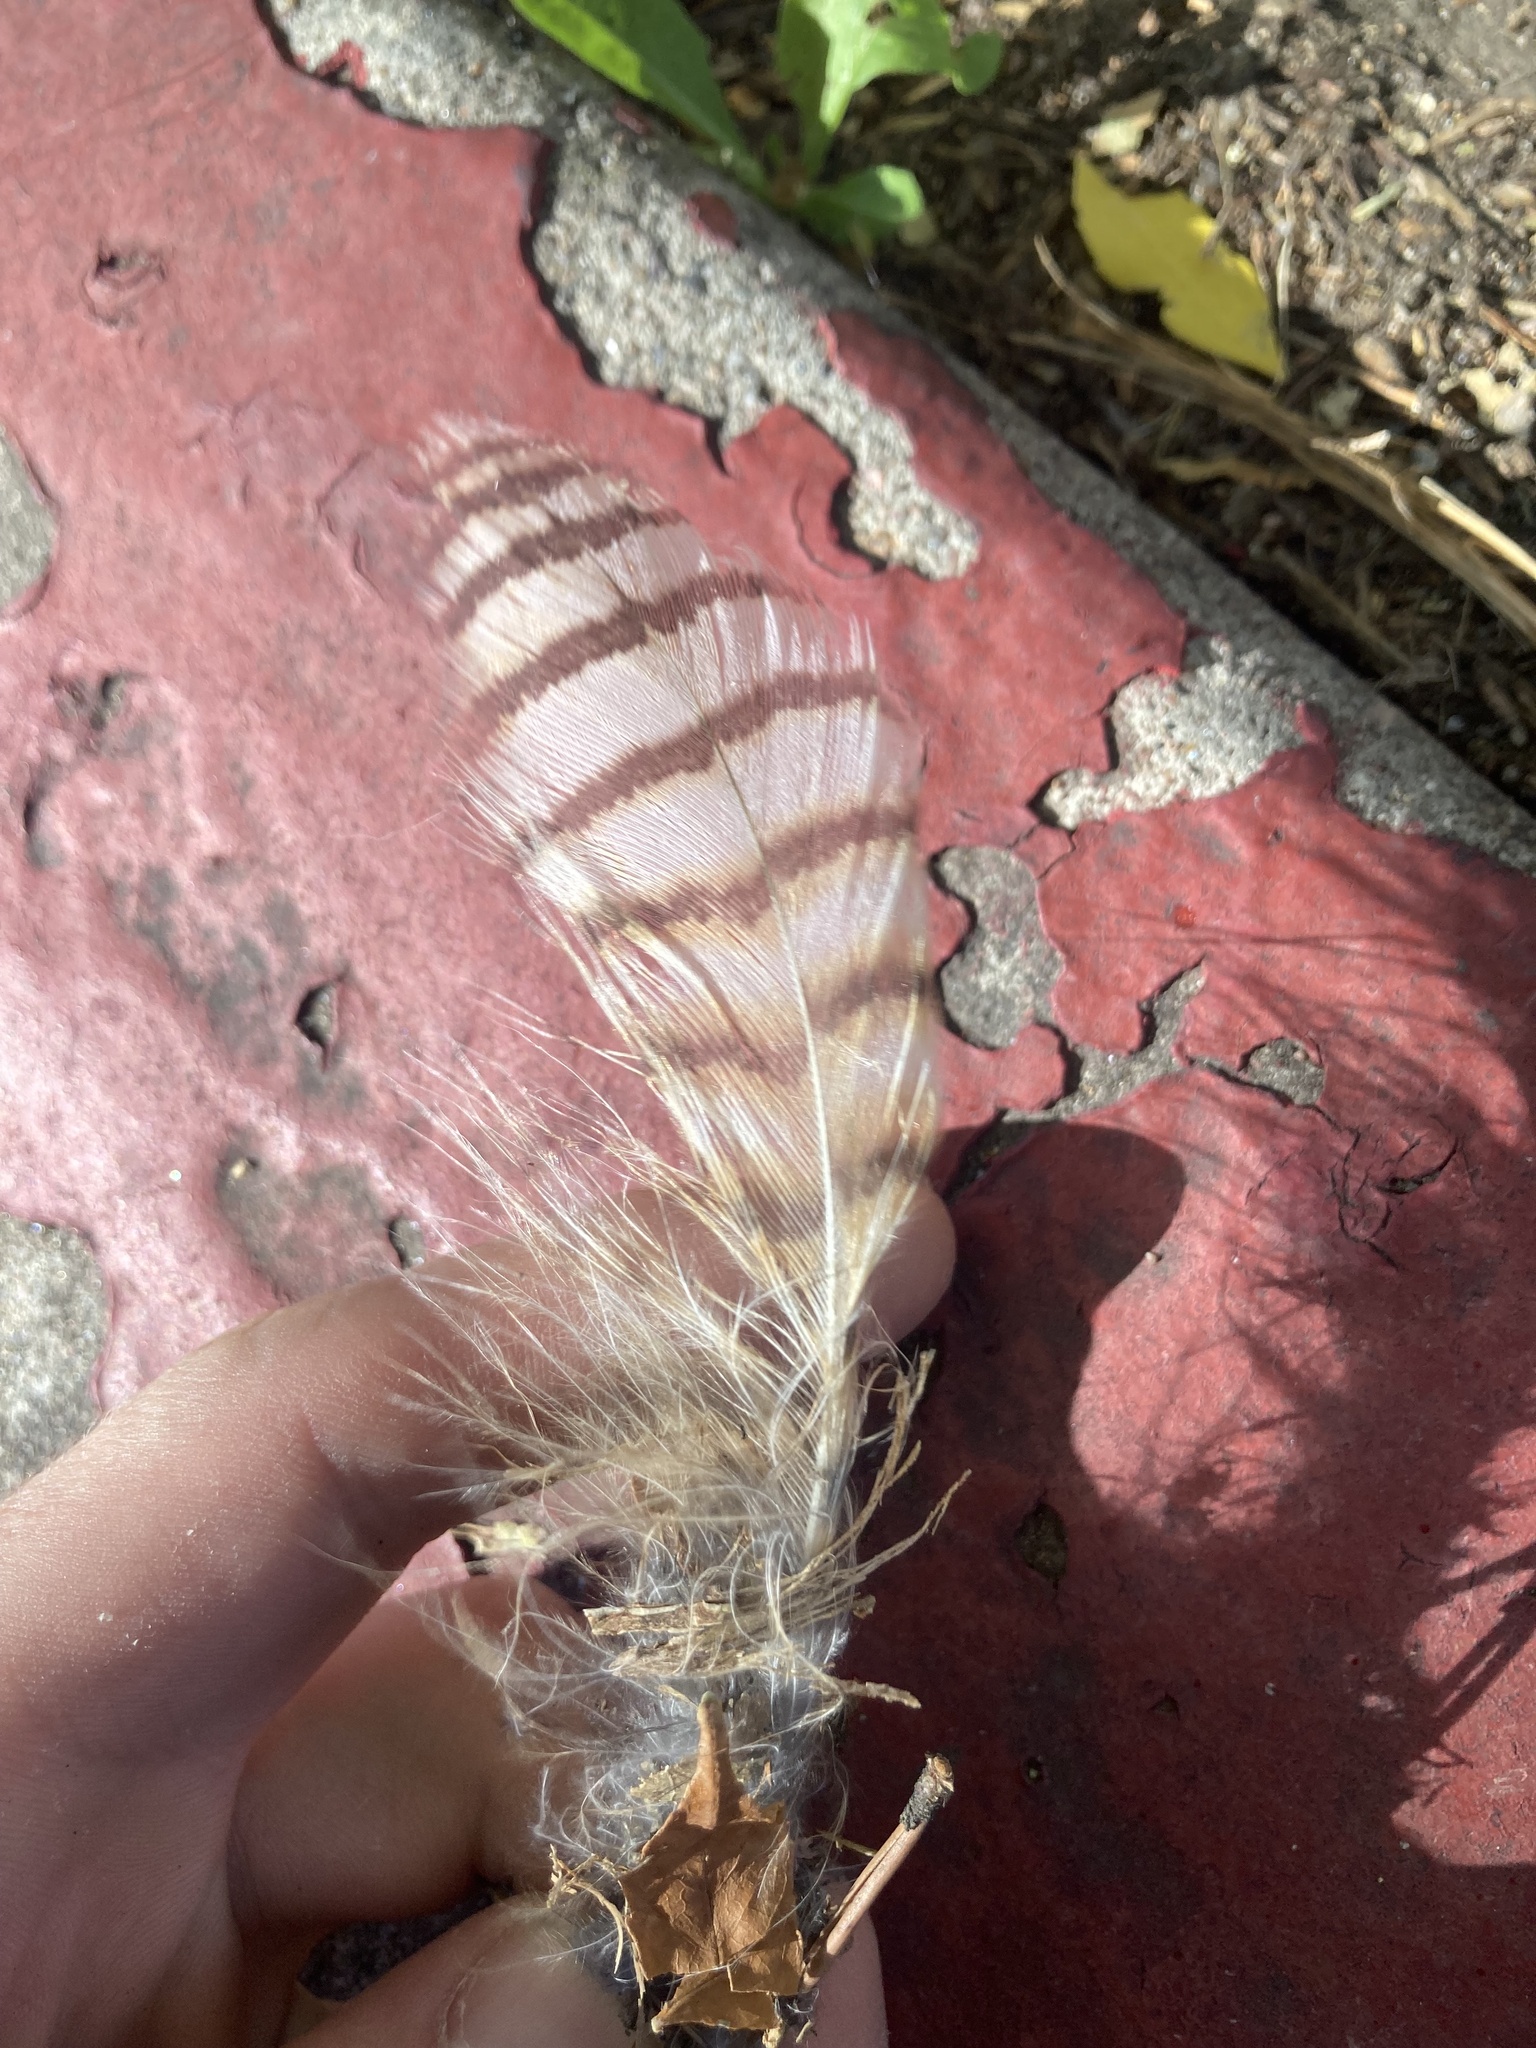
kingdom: Animalia
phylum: Chordata
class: Aves
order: Strigiformes
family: Strigidae
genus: Bubo
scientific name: Bubo virginianus
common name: Great horned owl
